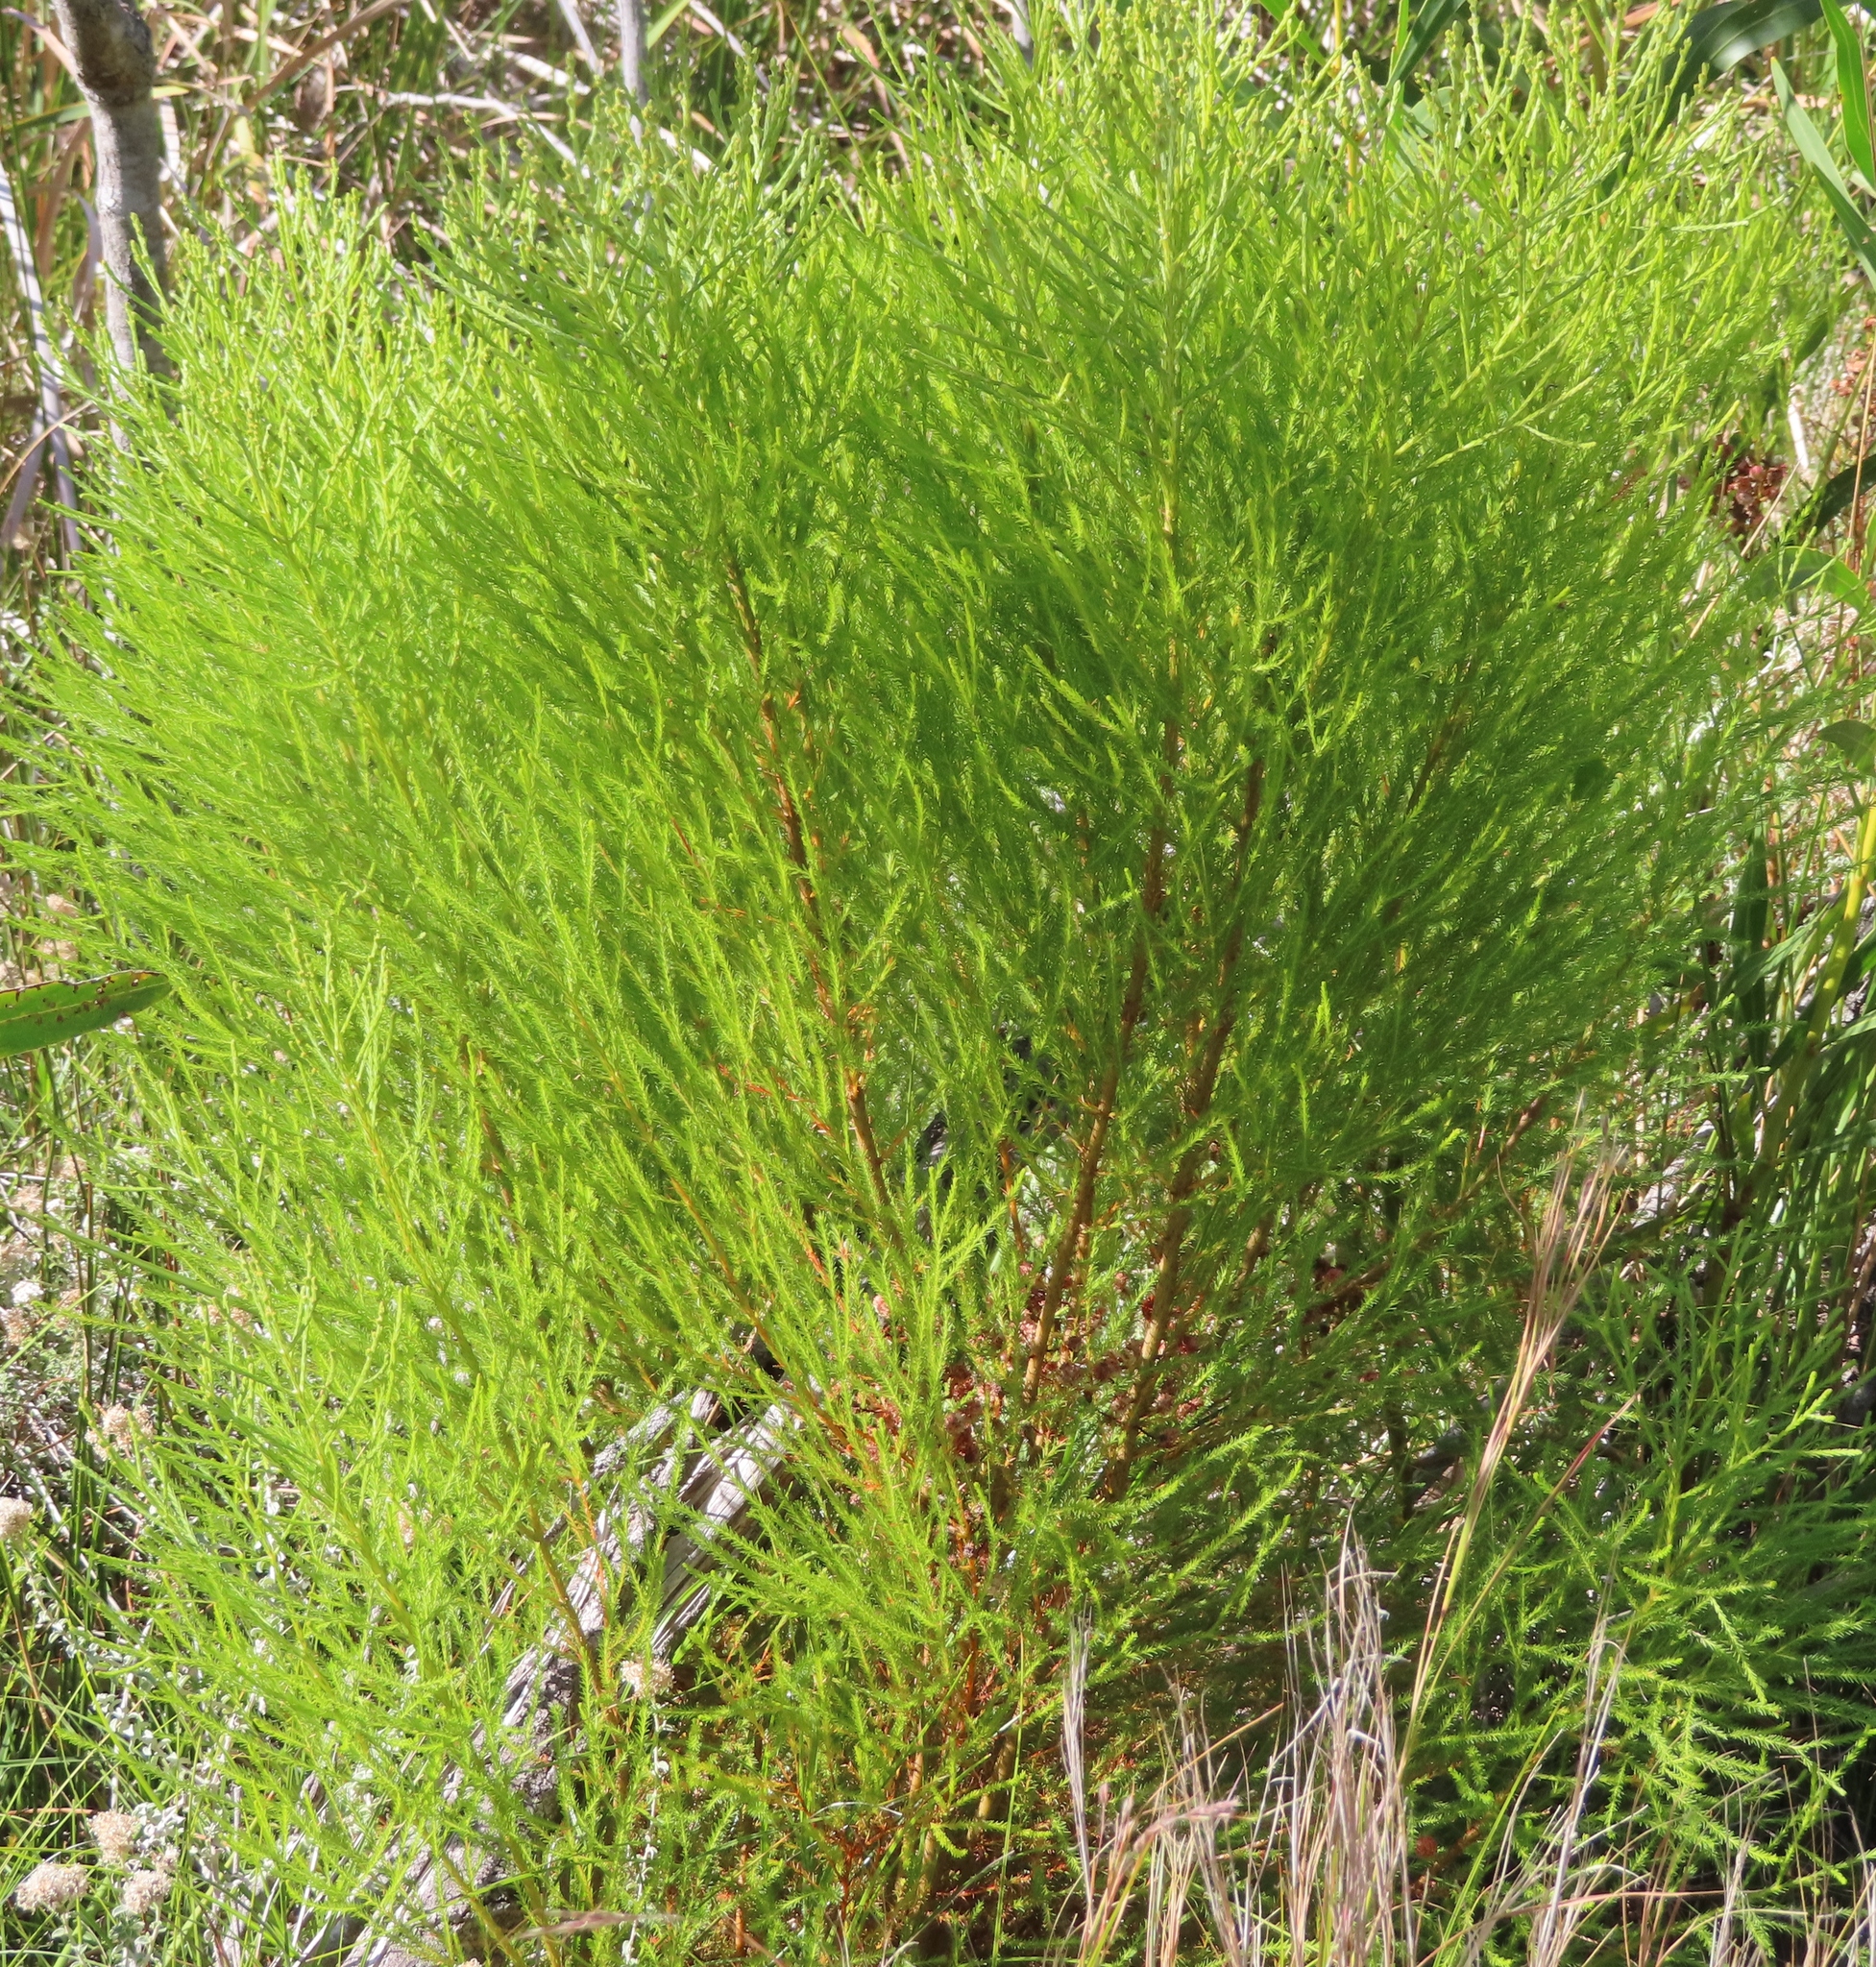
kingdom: Plantae
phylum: Tracheophyta
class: Magnoliopsida
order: Bruniales
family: Bruniaceae
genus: Berzelia
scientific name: Berzelia lanuginosa
